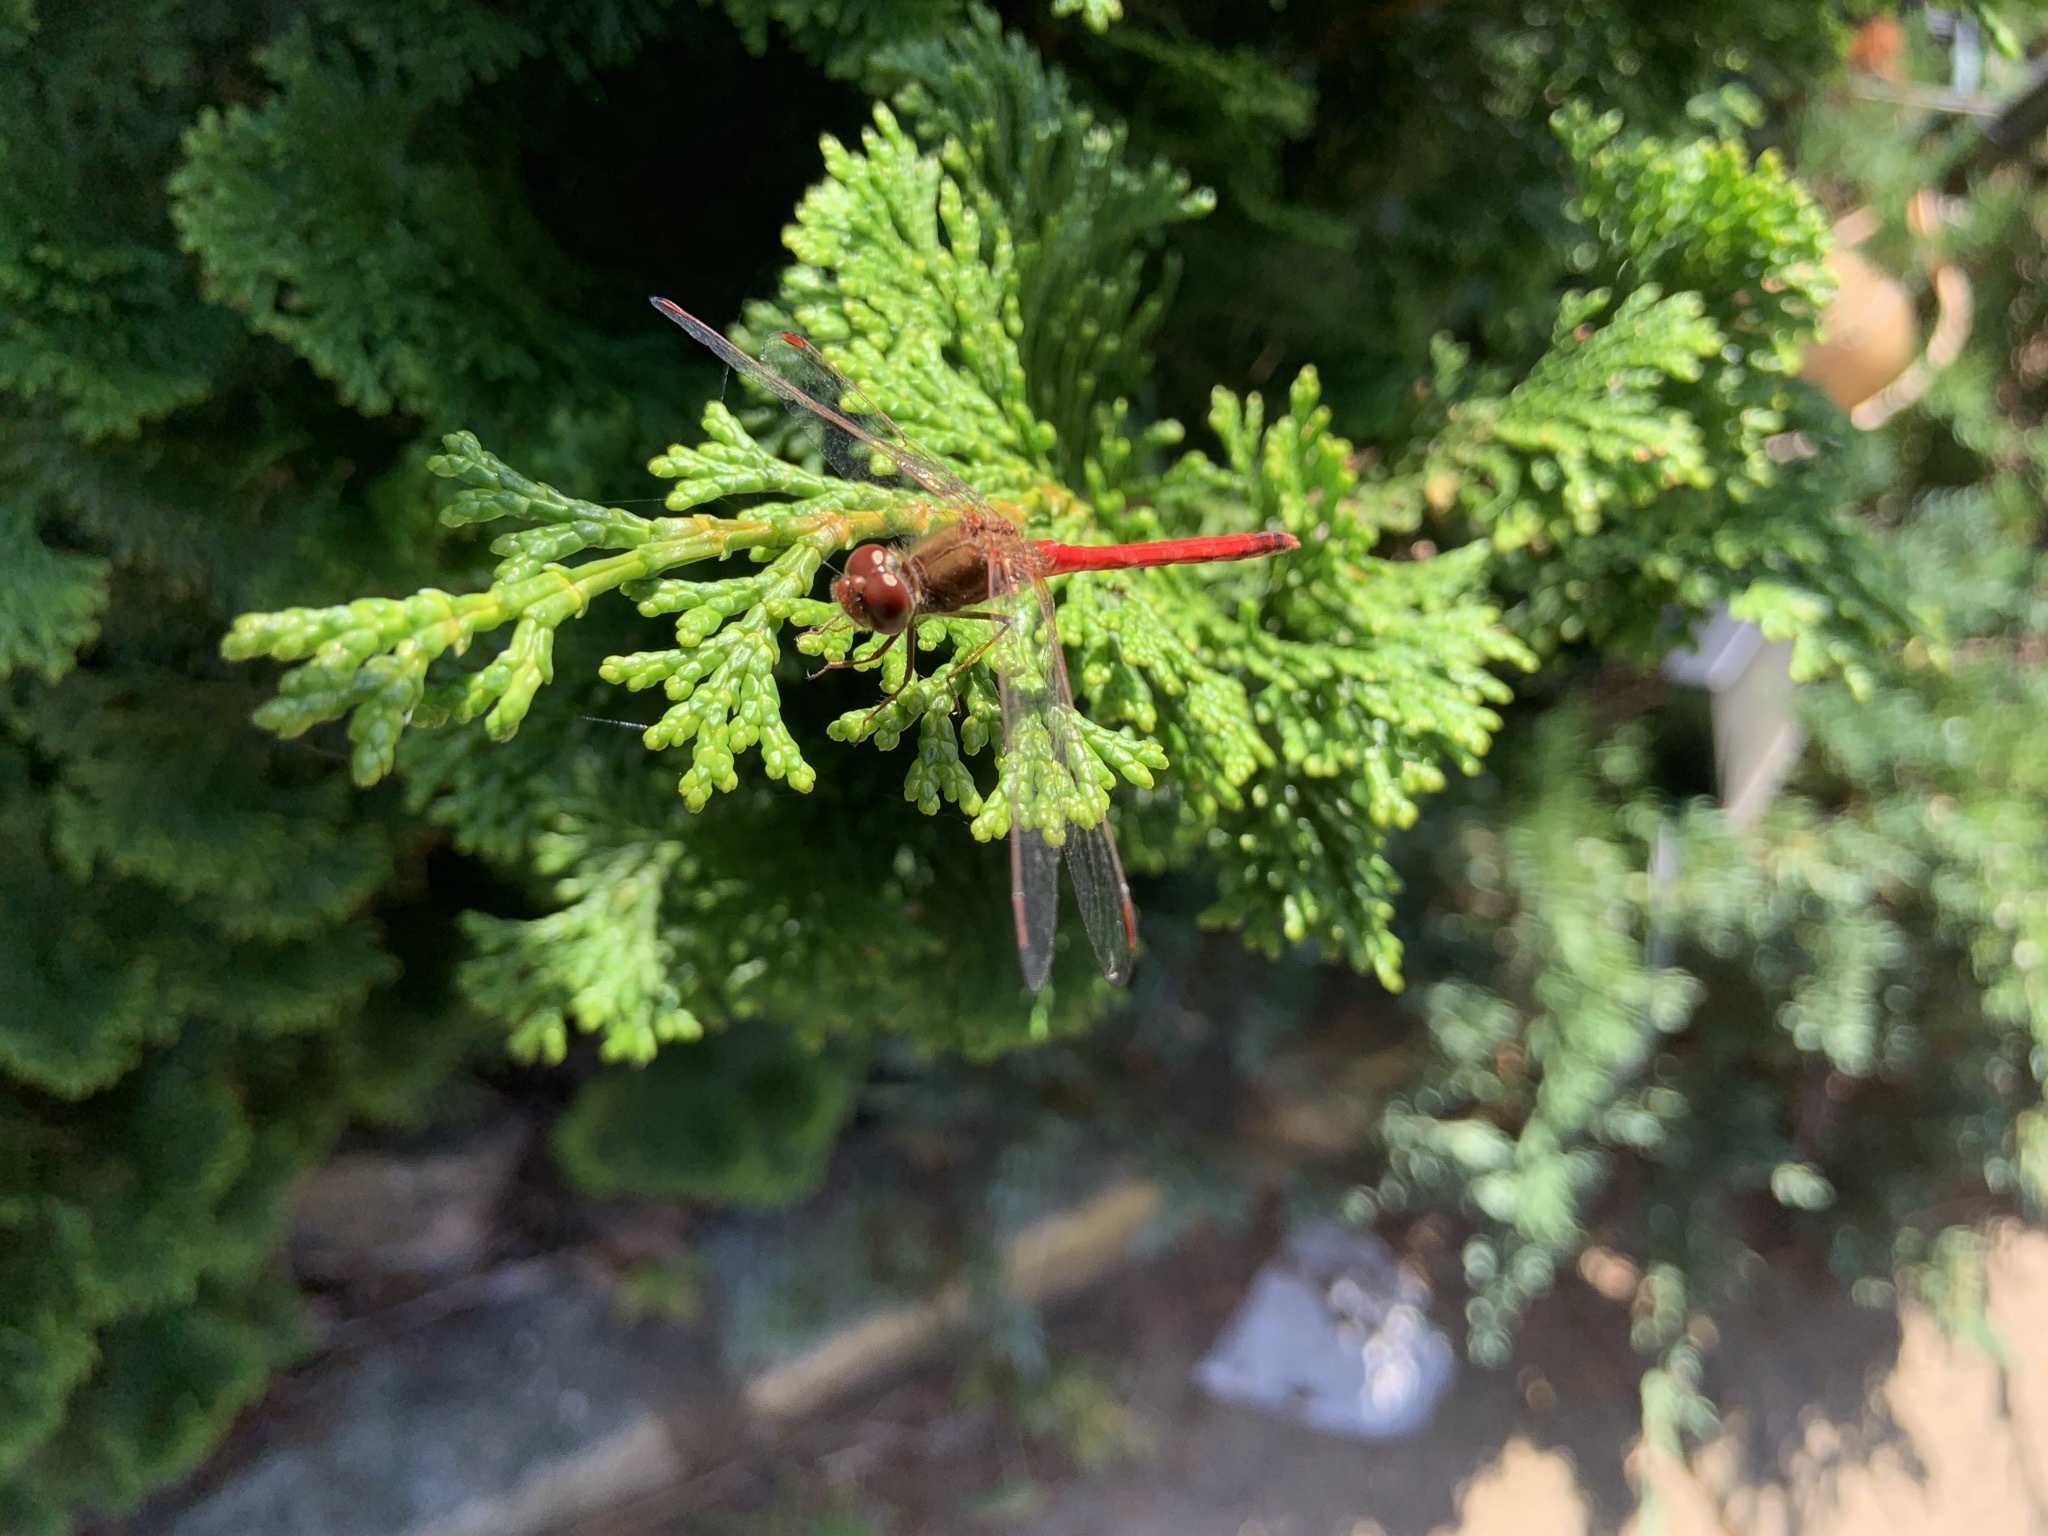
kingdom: Animalia
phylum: Arthropoda
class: Insecta
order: Odonata
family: Libellulidae
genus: Sympetrum
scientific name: Sympetrum vicinum
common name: Autumn meadowhawk
